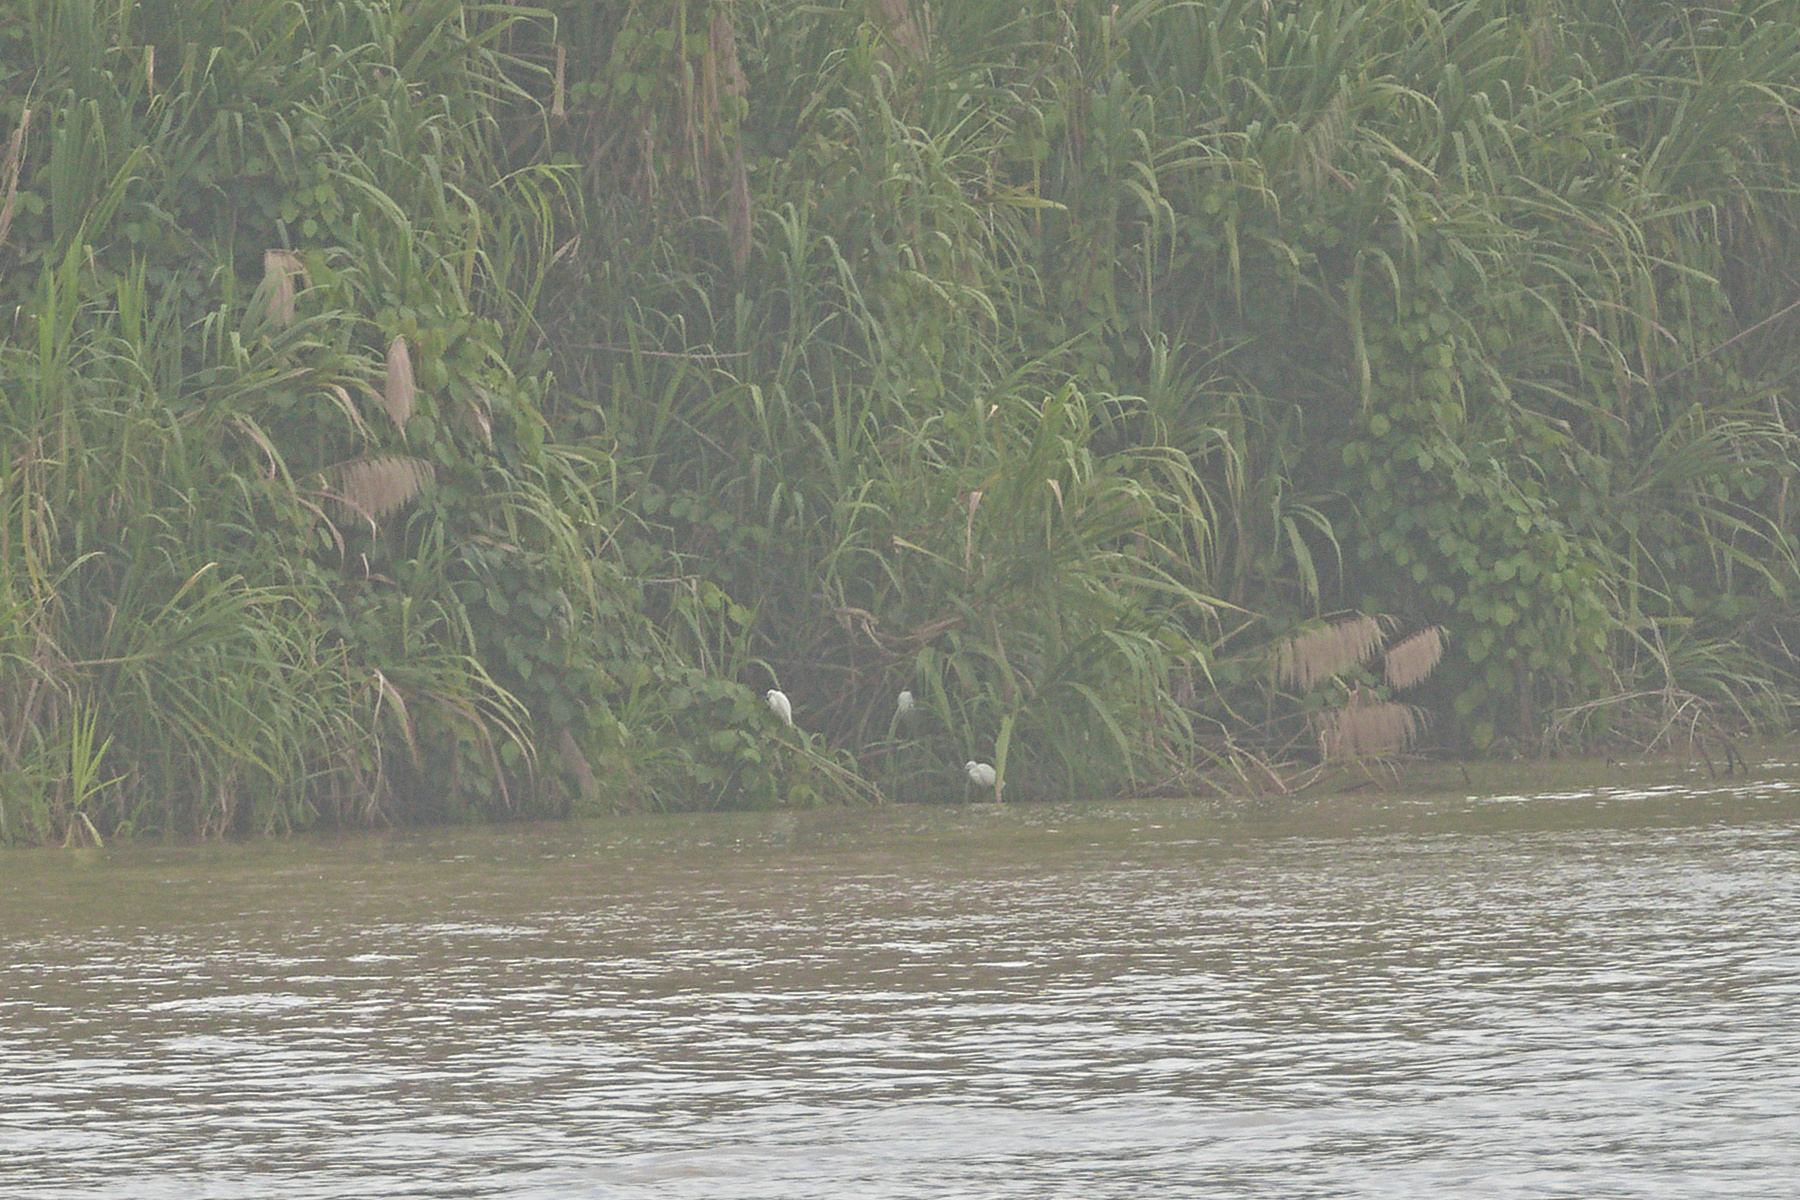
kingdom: Animalia
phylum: Chordata
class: Aves
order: Pelecaniformes
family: Ardeidae
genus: Egretta
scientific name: Egretta thula
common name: Snowy egret
